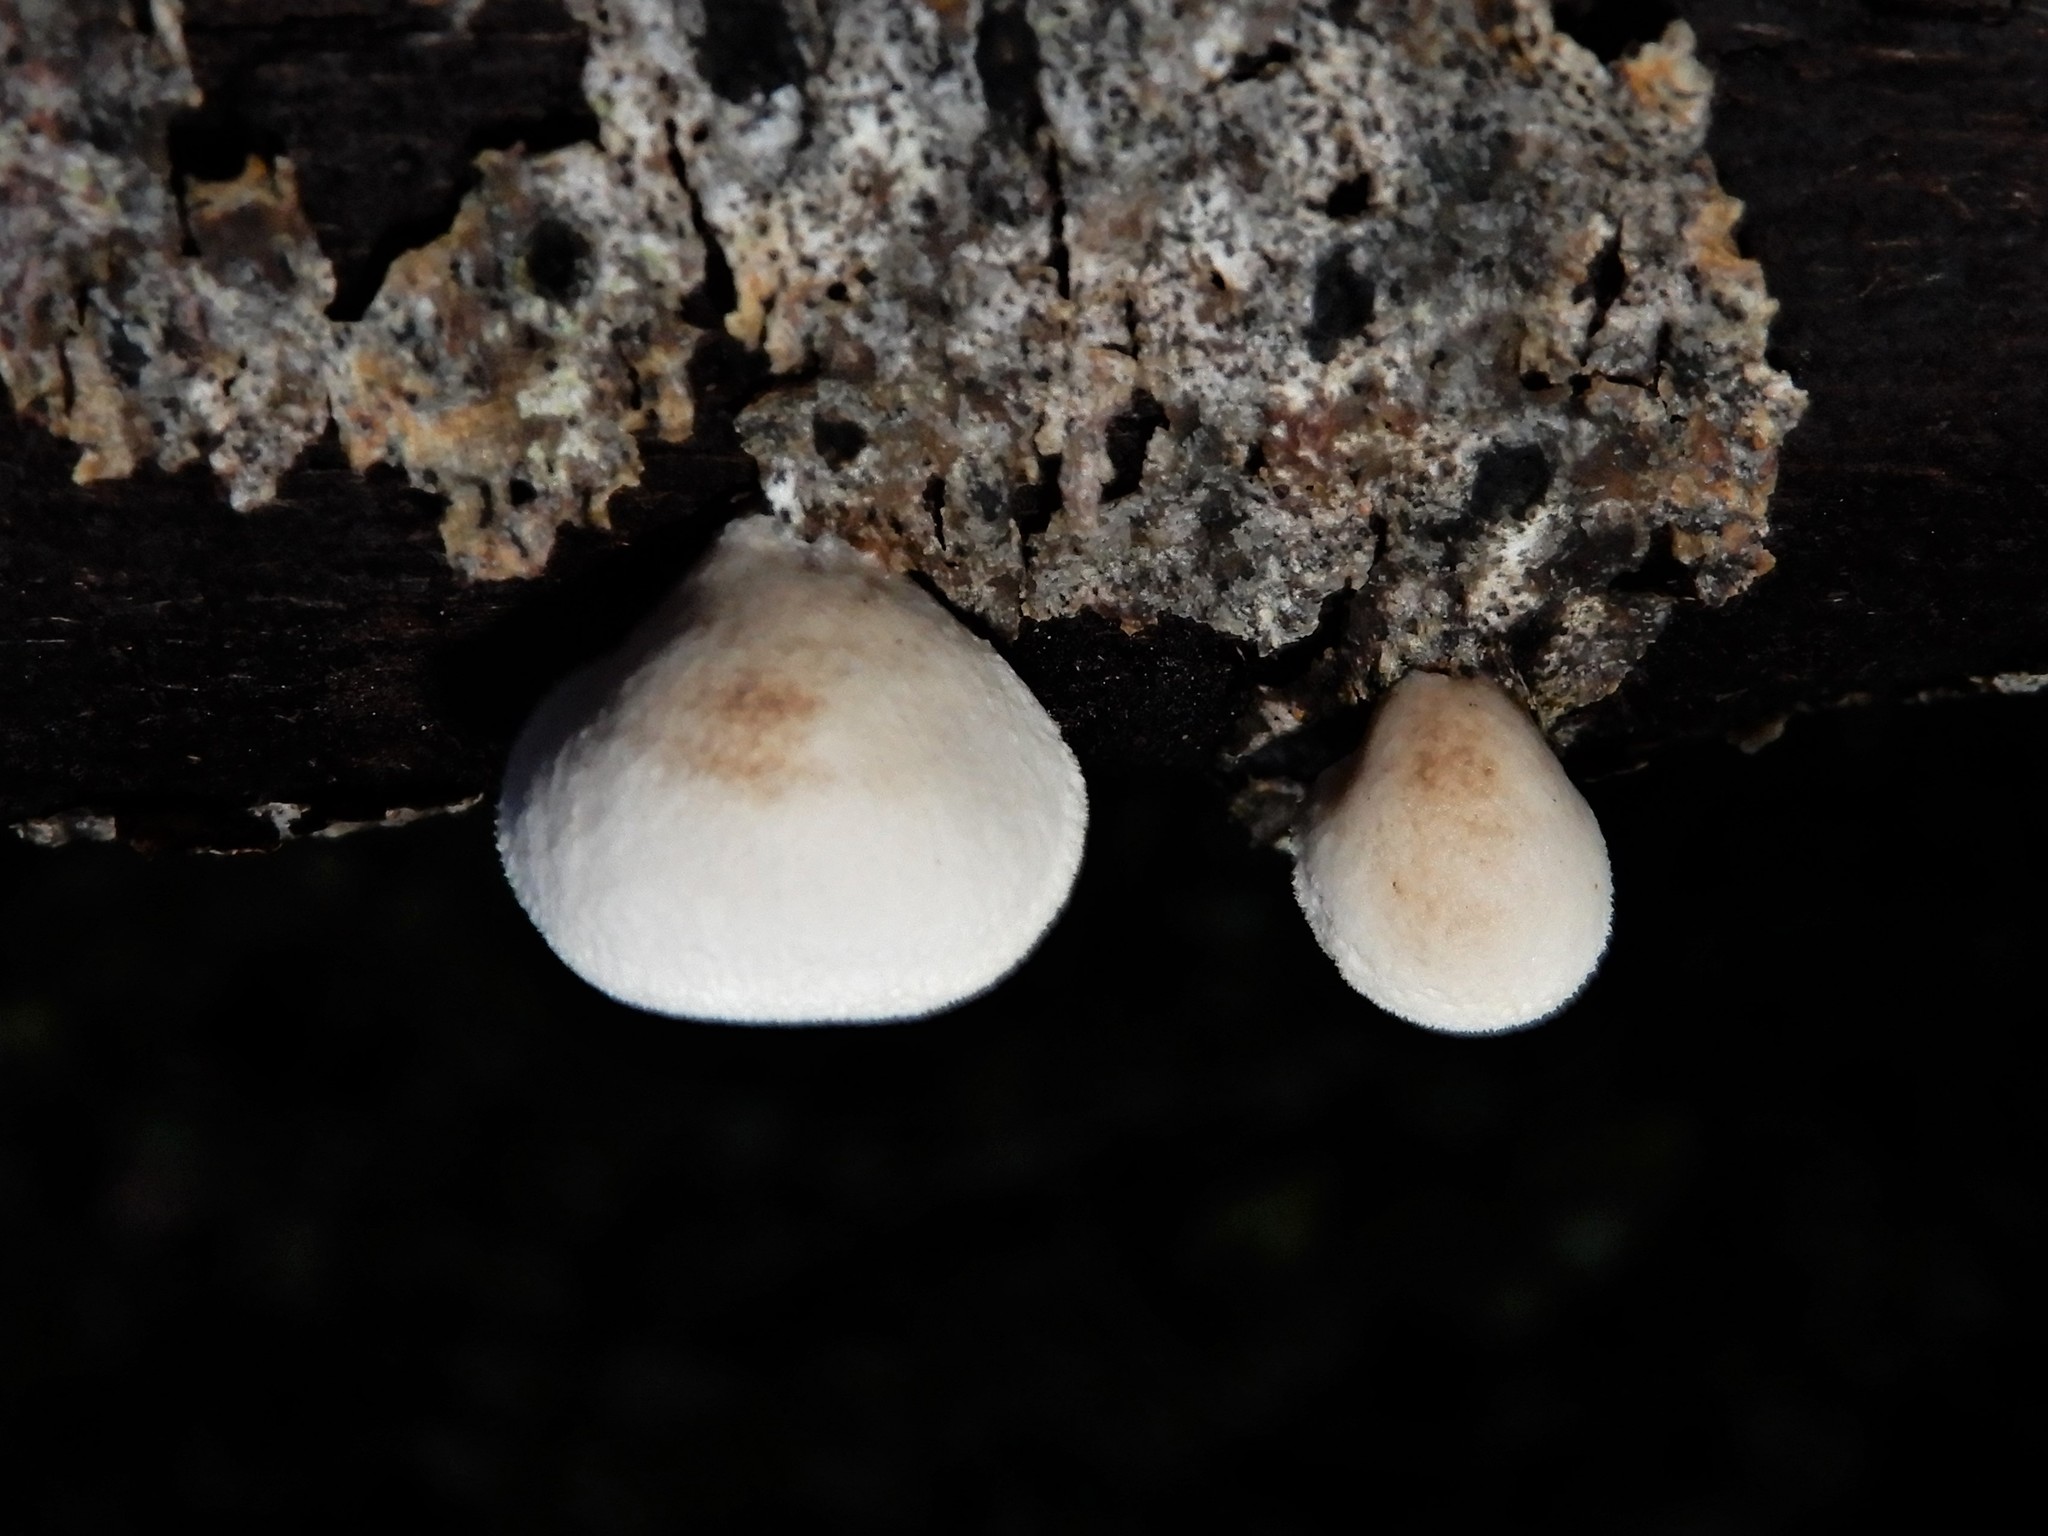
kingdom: Fungi
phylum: Basidiomycota
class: Agaricomycetes
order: Agaricales
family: Schizophyllaceae
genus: Schizophyllum
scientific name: Schizophyllum amplum
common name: Poplar bells
